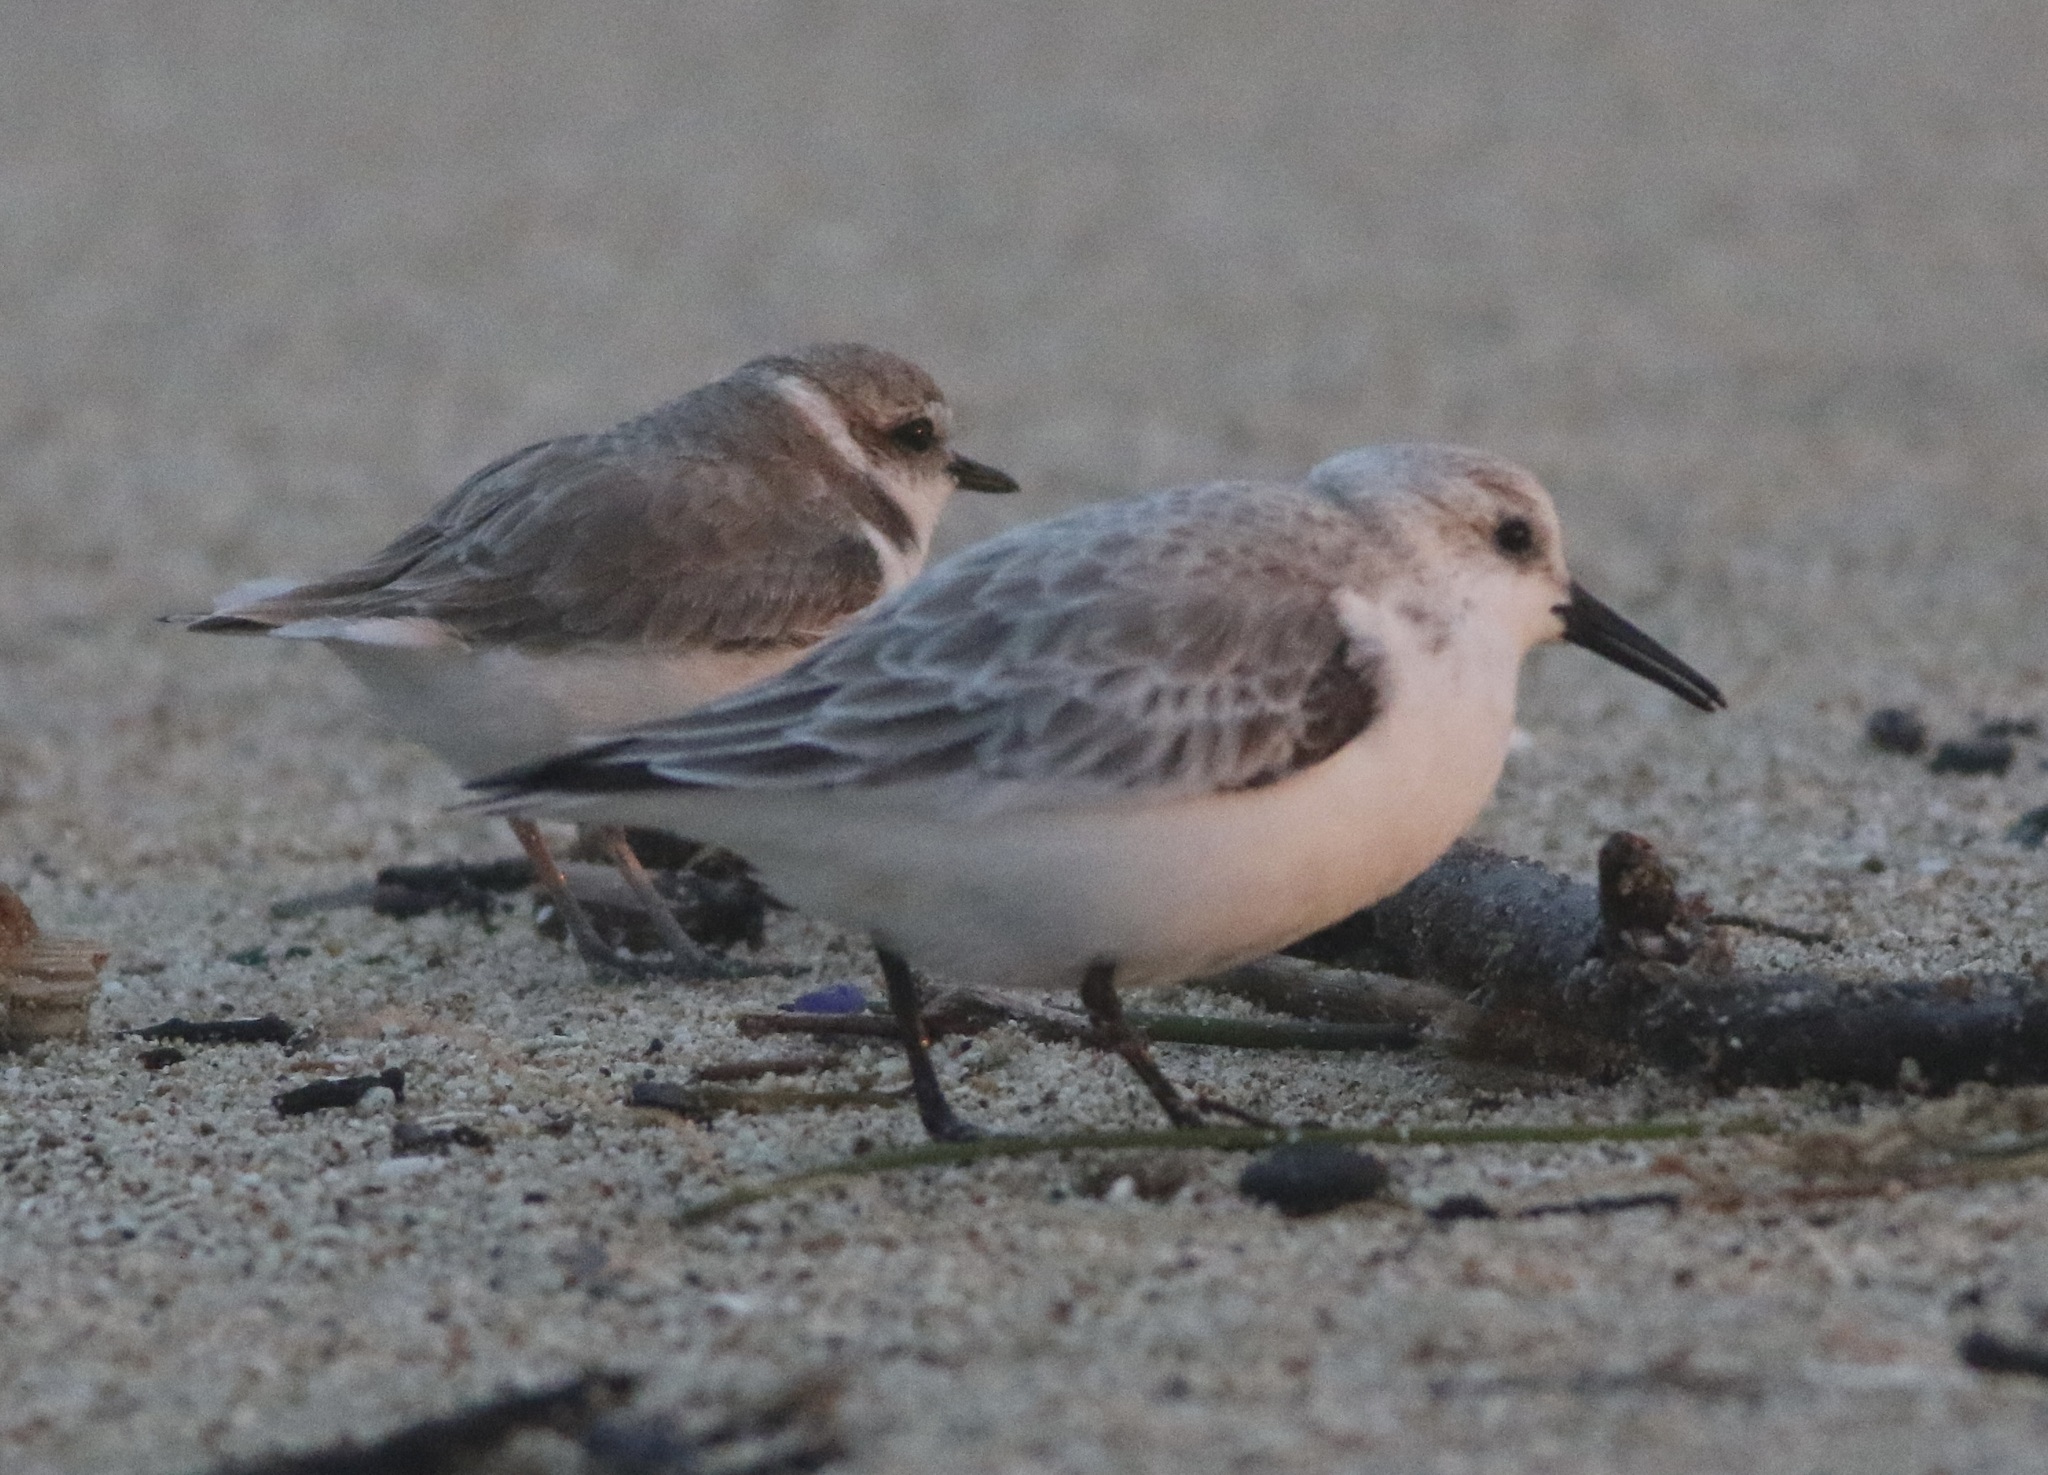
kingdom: Animalia
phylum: Chordata
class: Aves
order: Charadriiformes
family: Scolopacidae
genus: Calidris
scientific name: Calidris alba
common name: Sanderling
